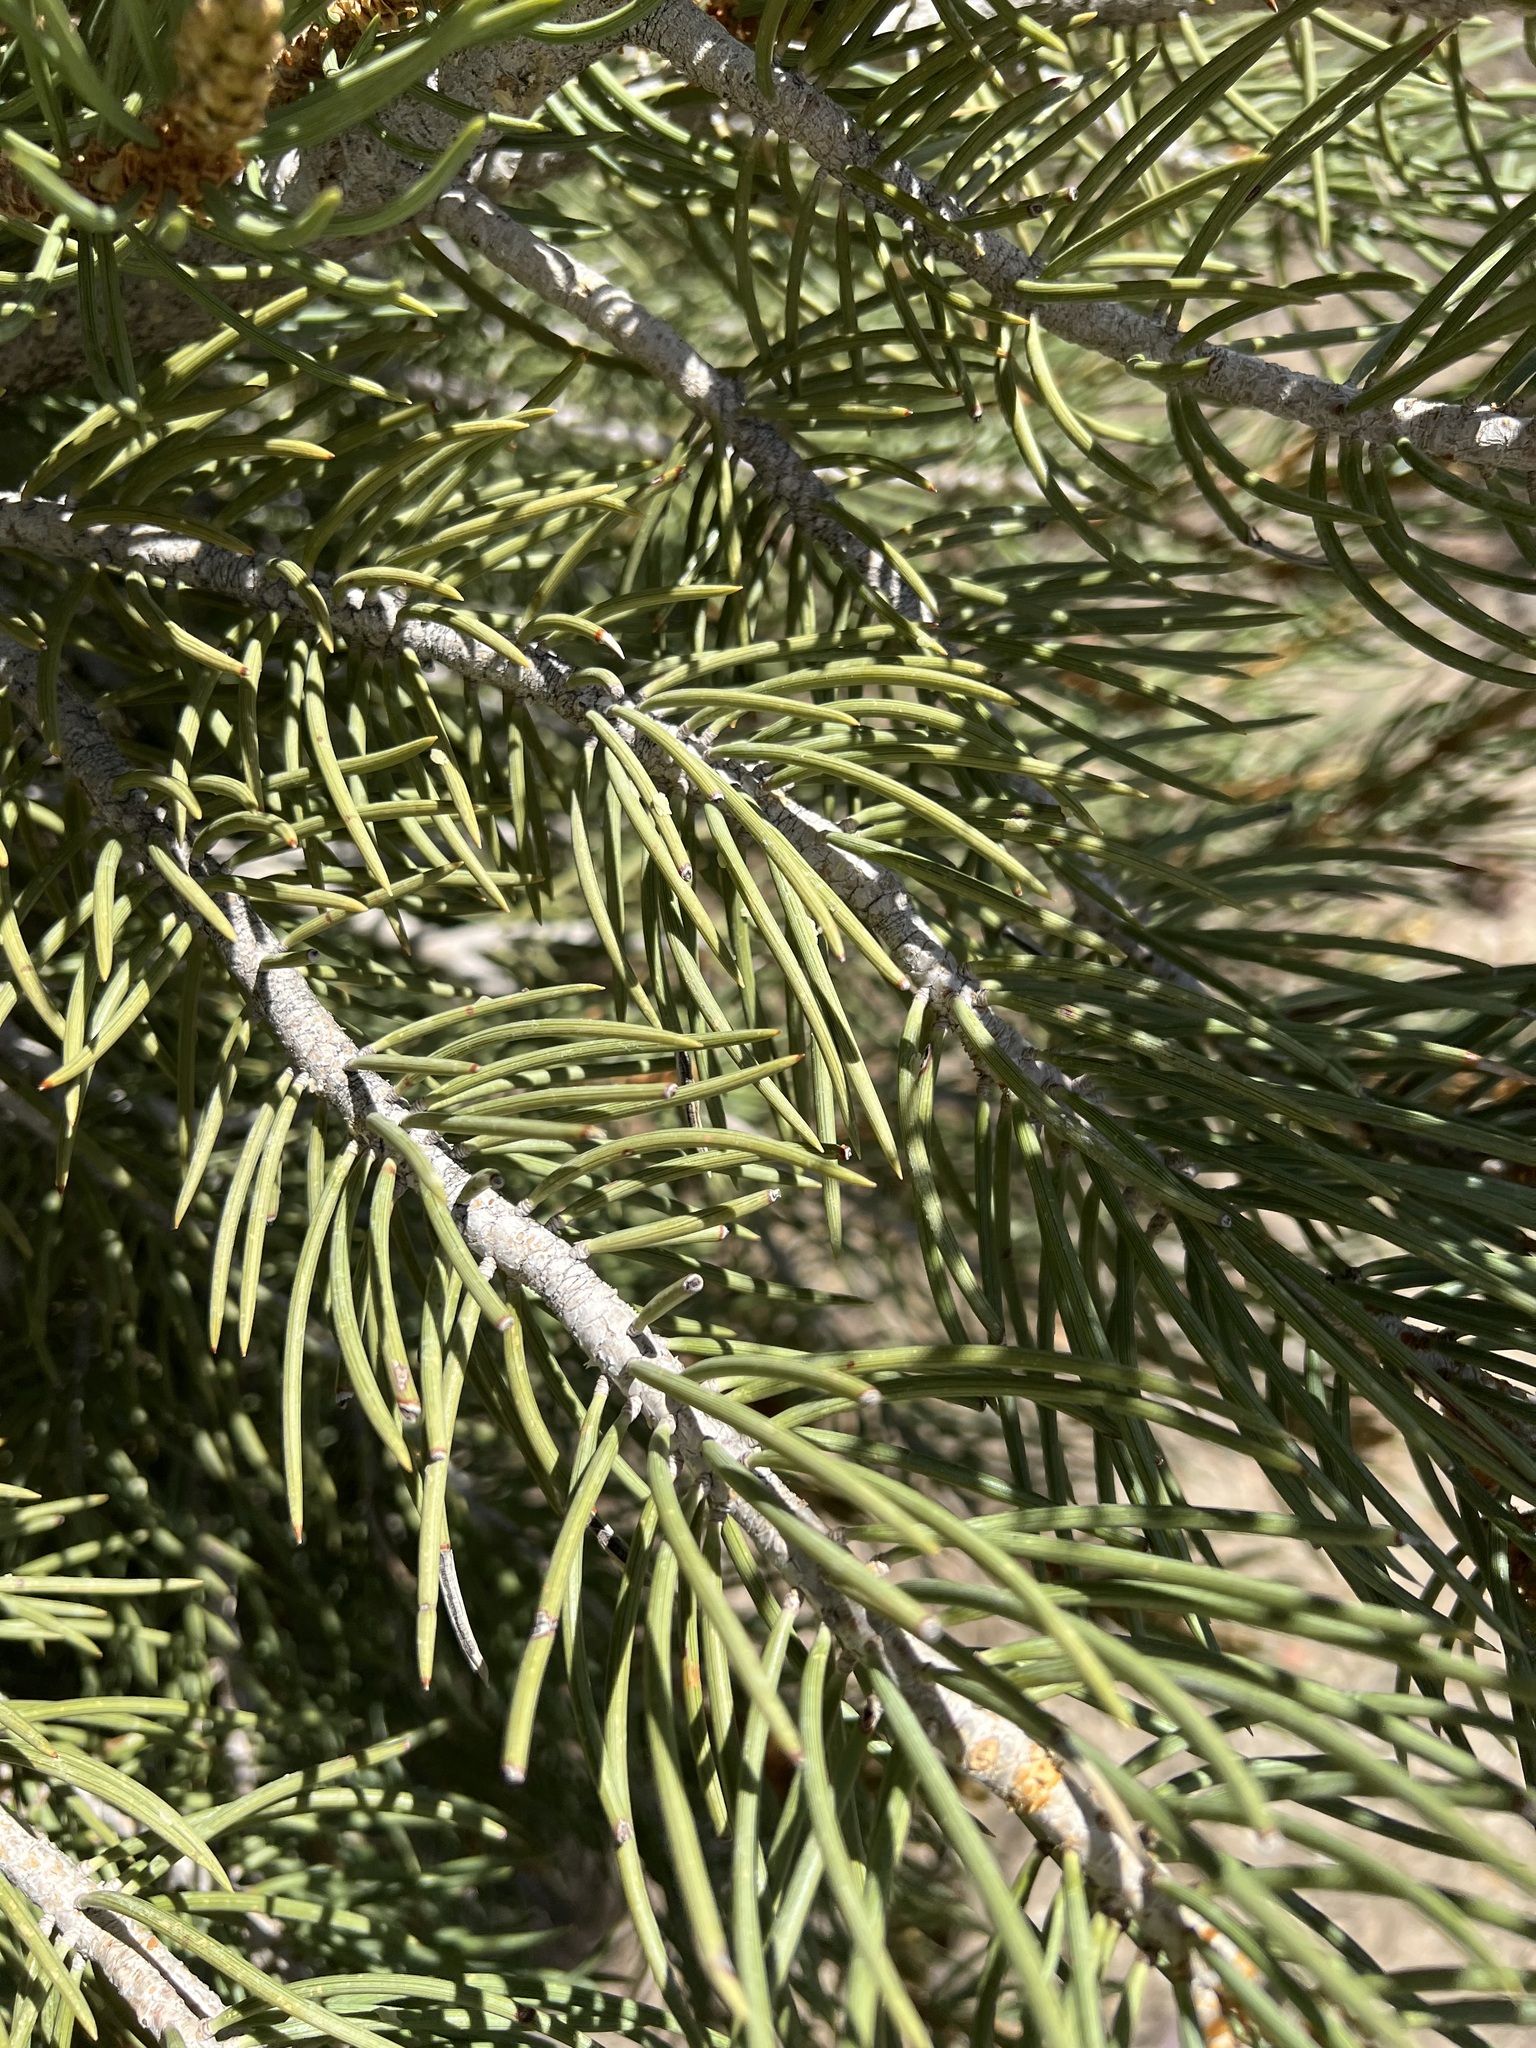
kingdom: Plantae
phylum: Tracheophyta
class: Pinopsida
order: Pinales
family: Pinaceae
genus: Pinus
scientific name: Pinus monophylla
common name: One-leaved nut pine
